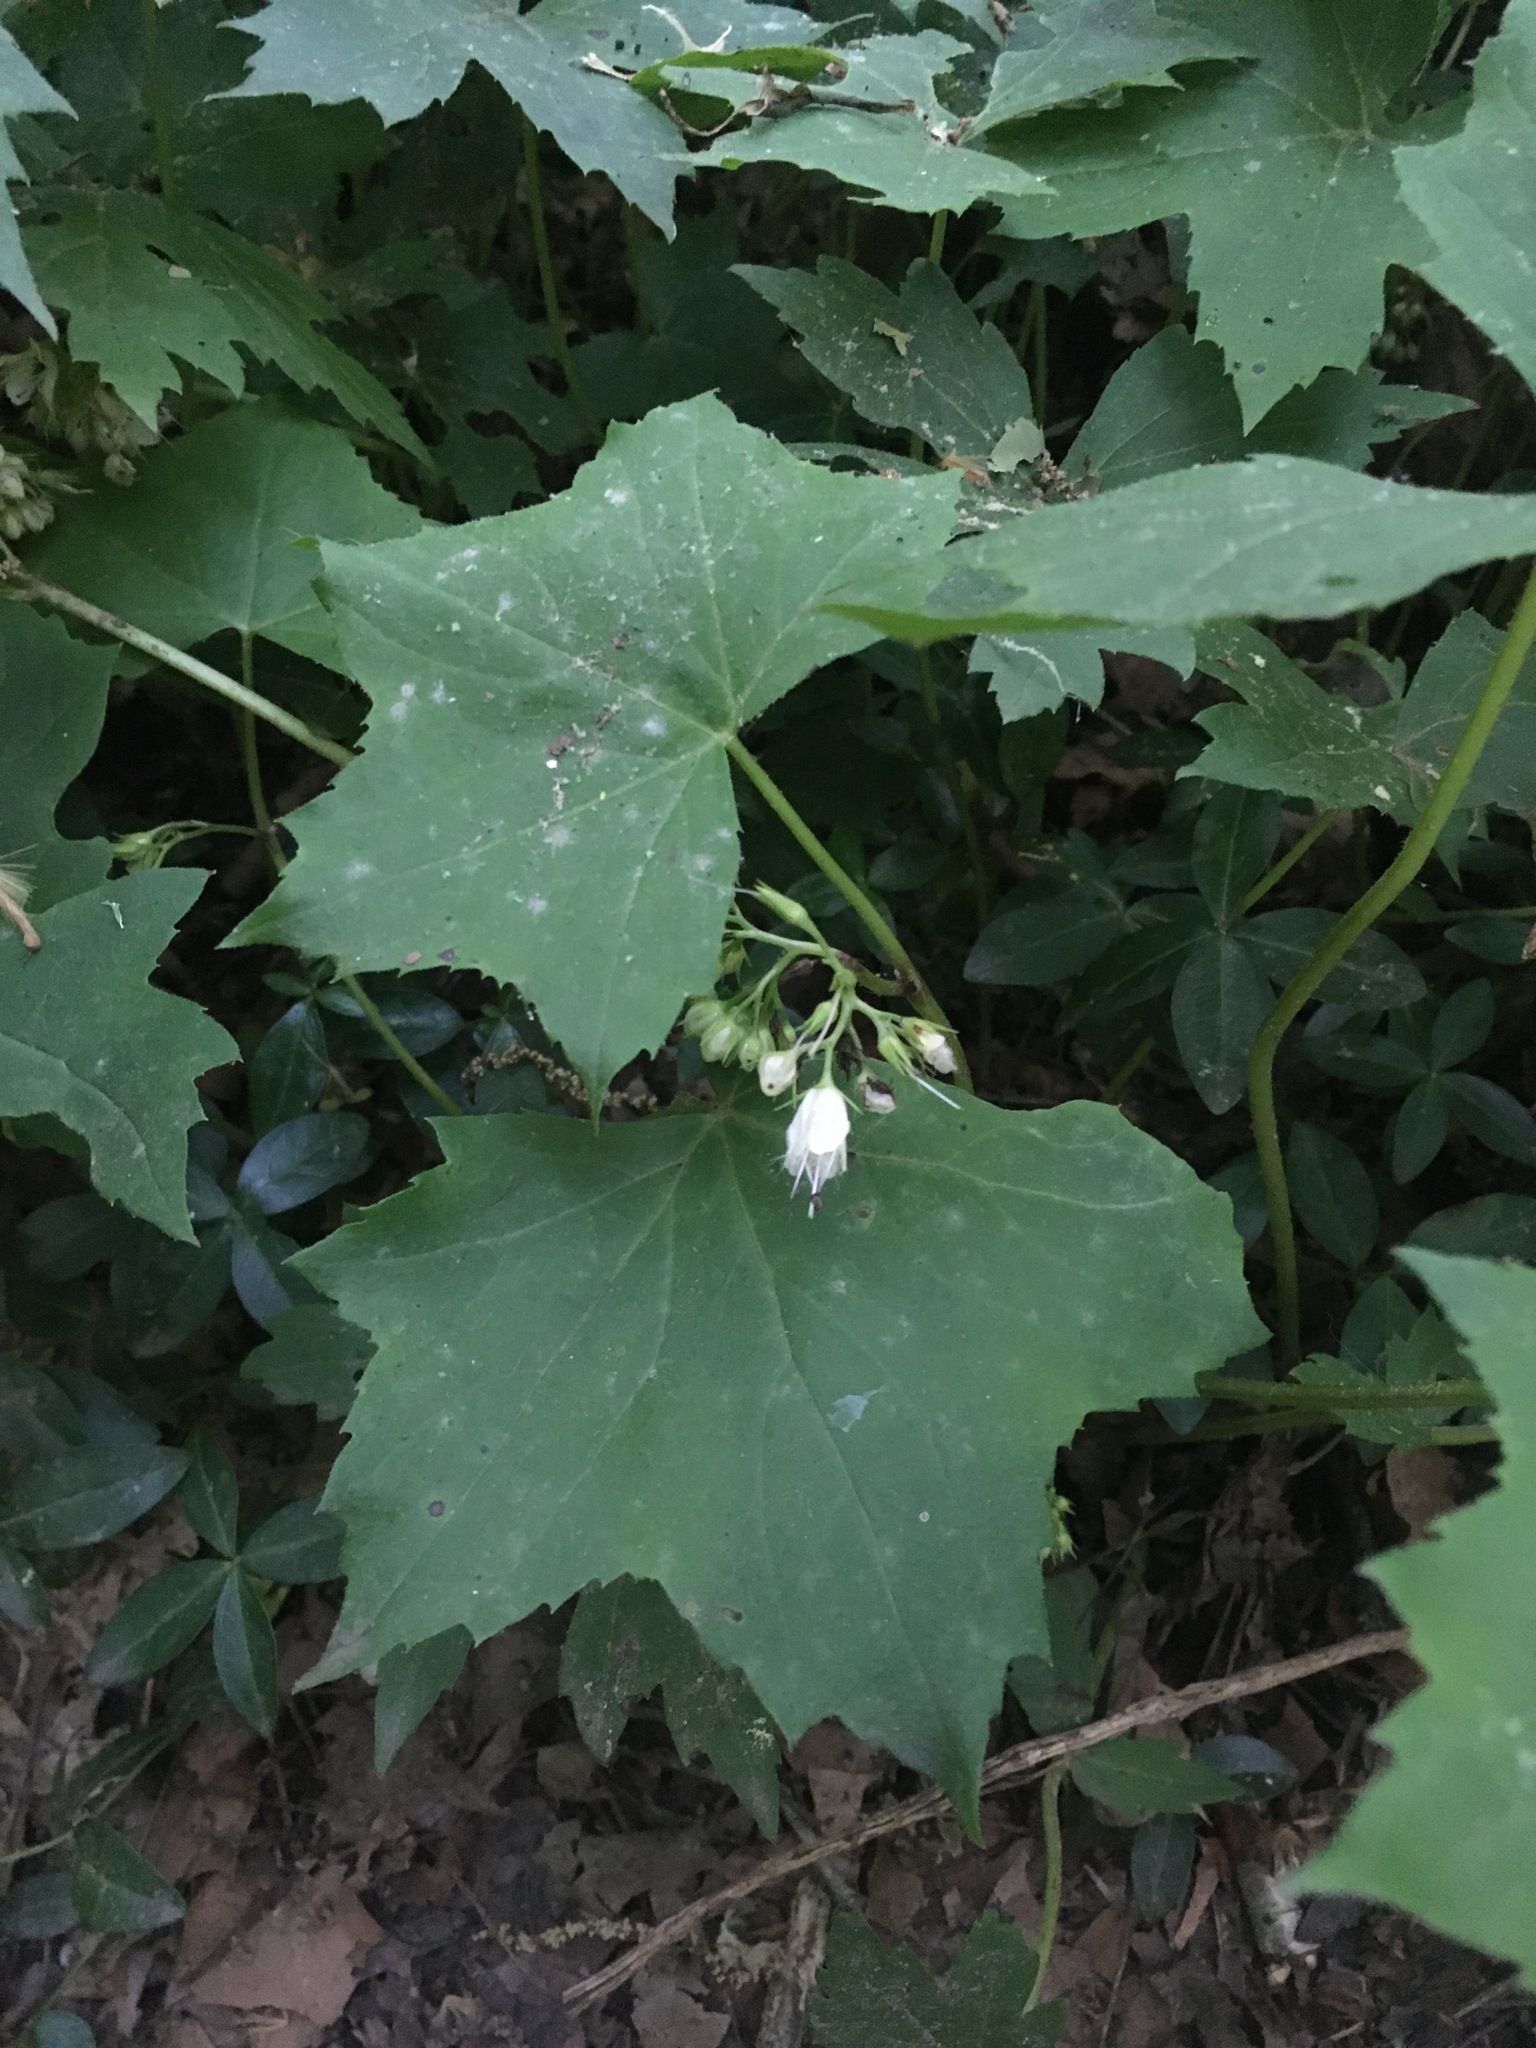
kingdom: Plantae
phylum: Tracheophyta
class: Magnoliopsida
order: Boraginales
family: Hydrophyllaceae
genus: Hydrophyllum
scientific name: Hydrophyllum canadense
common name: Canada waterleaf
